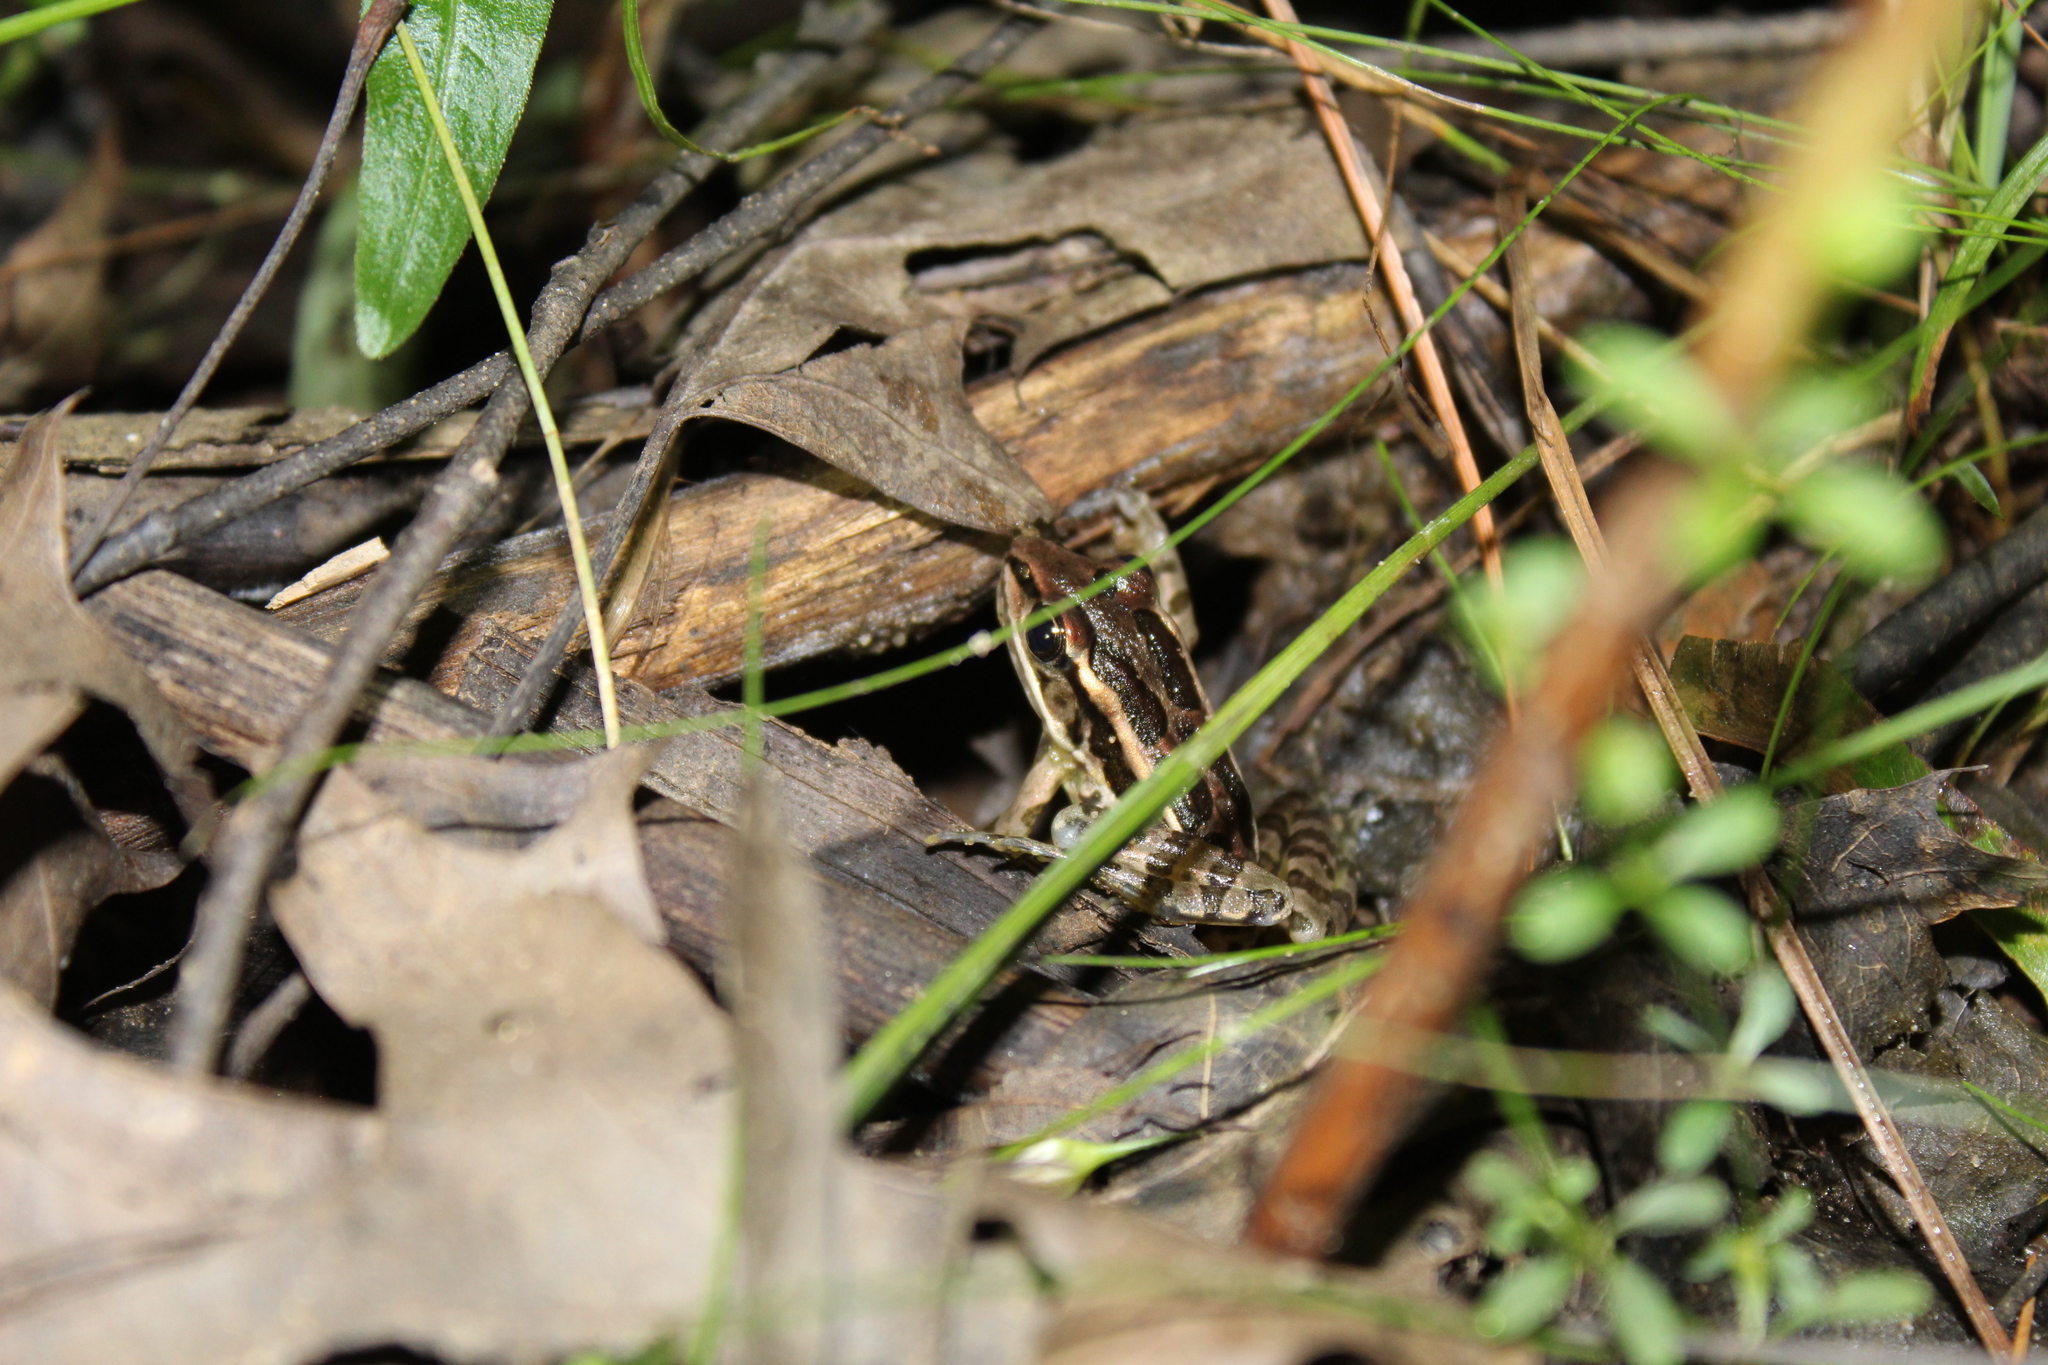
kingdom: Animalia
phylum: Chordata
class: Amphibia
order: Anura
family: Ranidae
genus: Lithobates
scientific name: Lithobates palustris
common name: Pickerel frog
